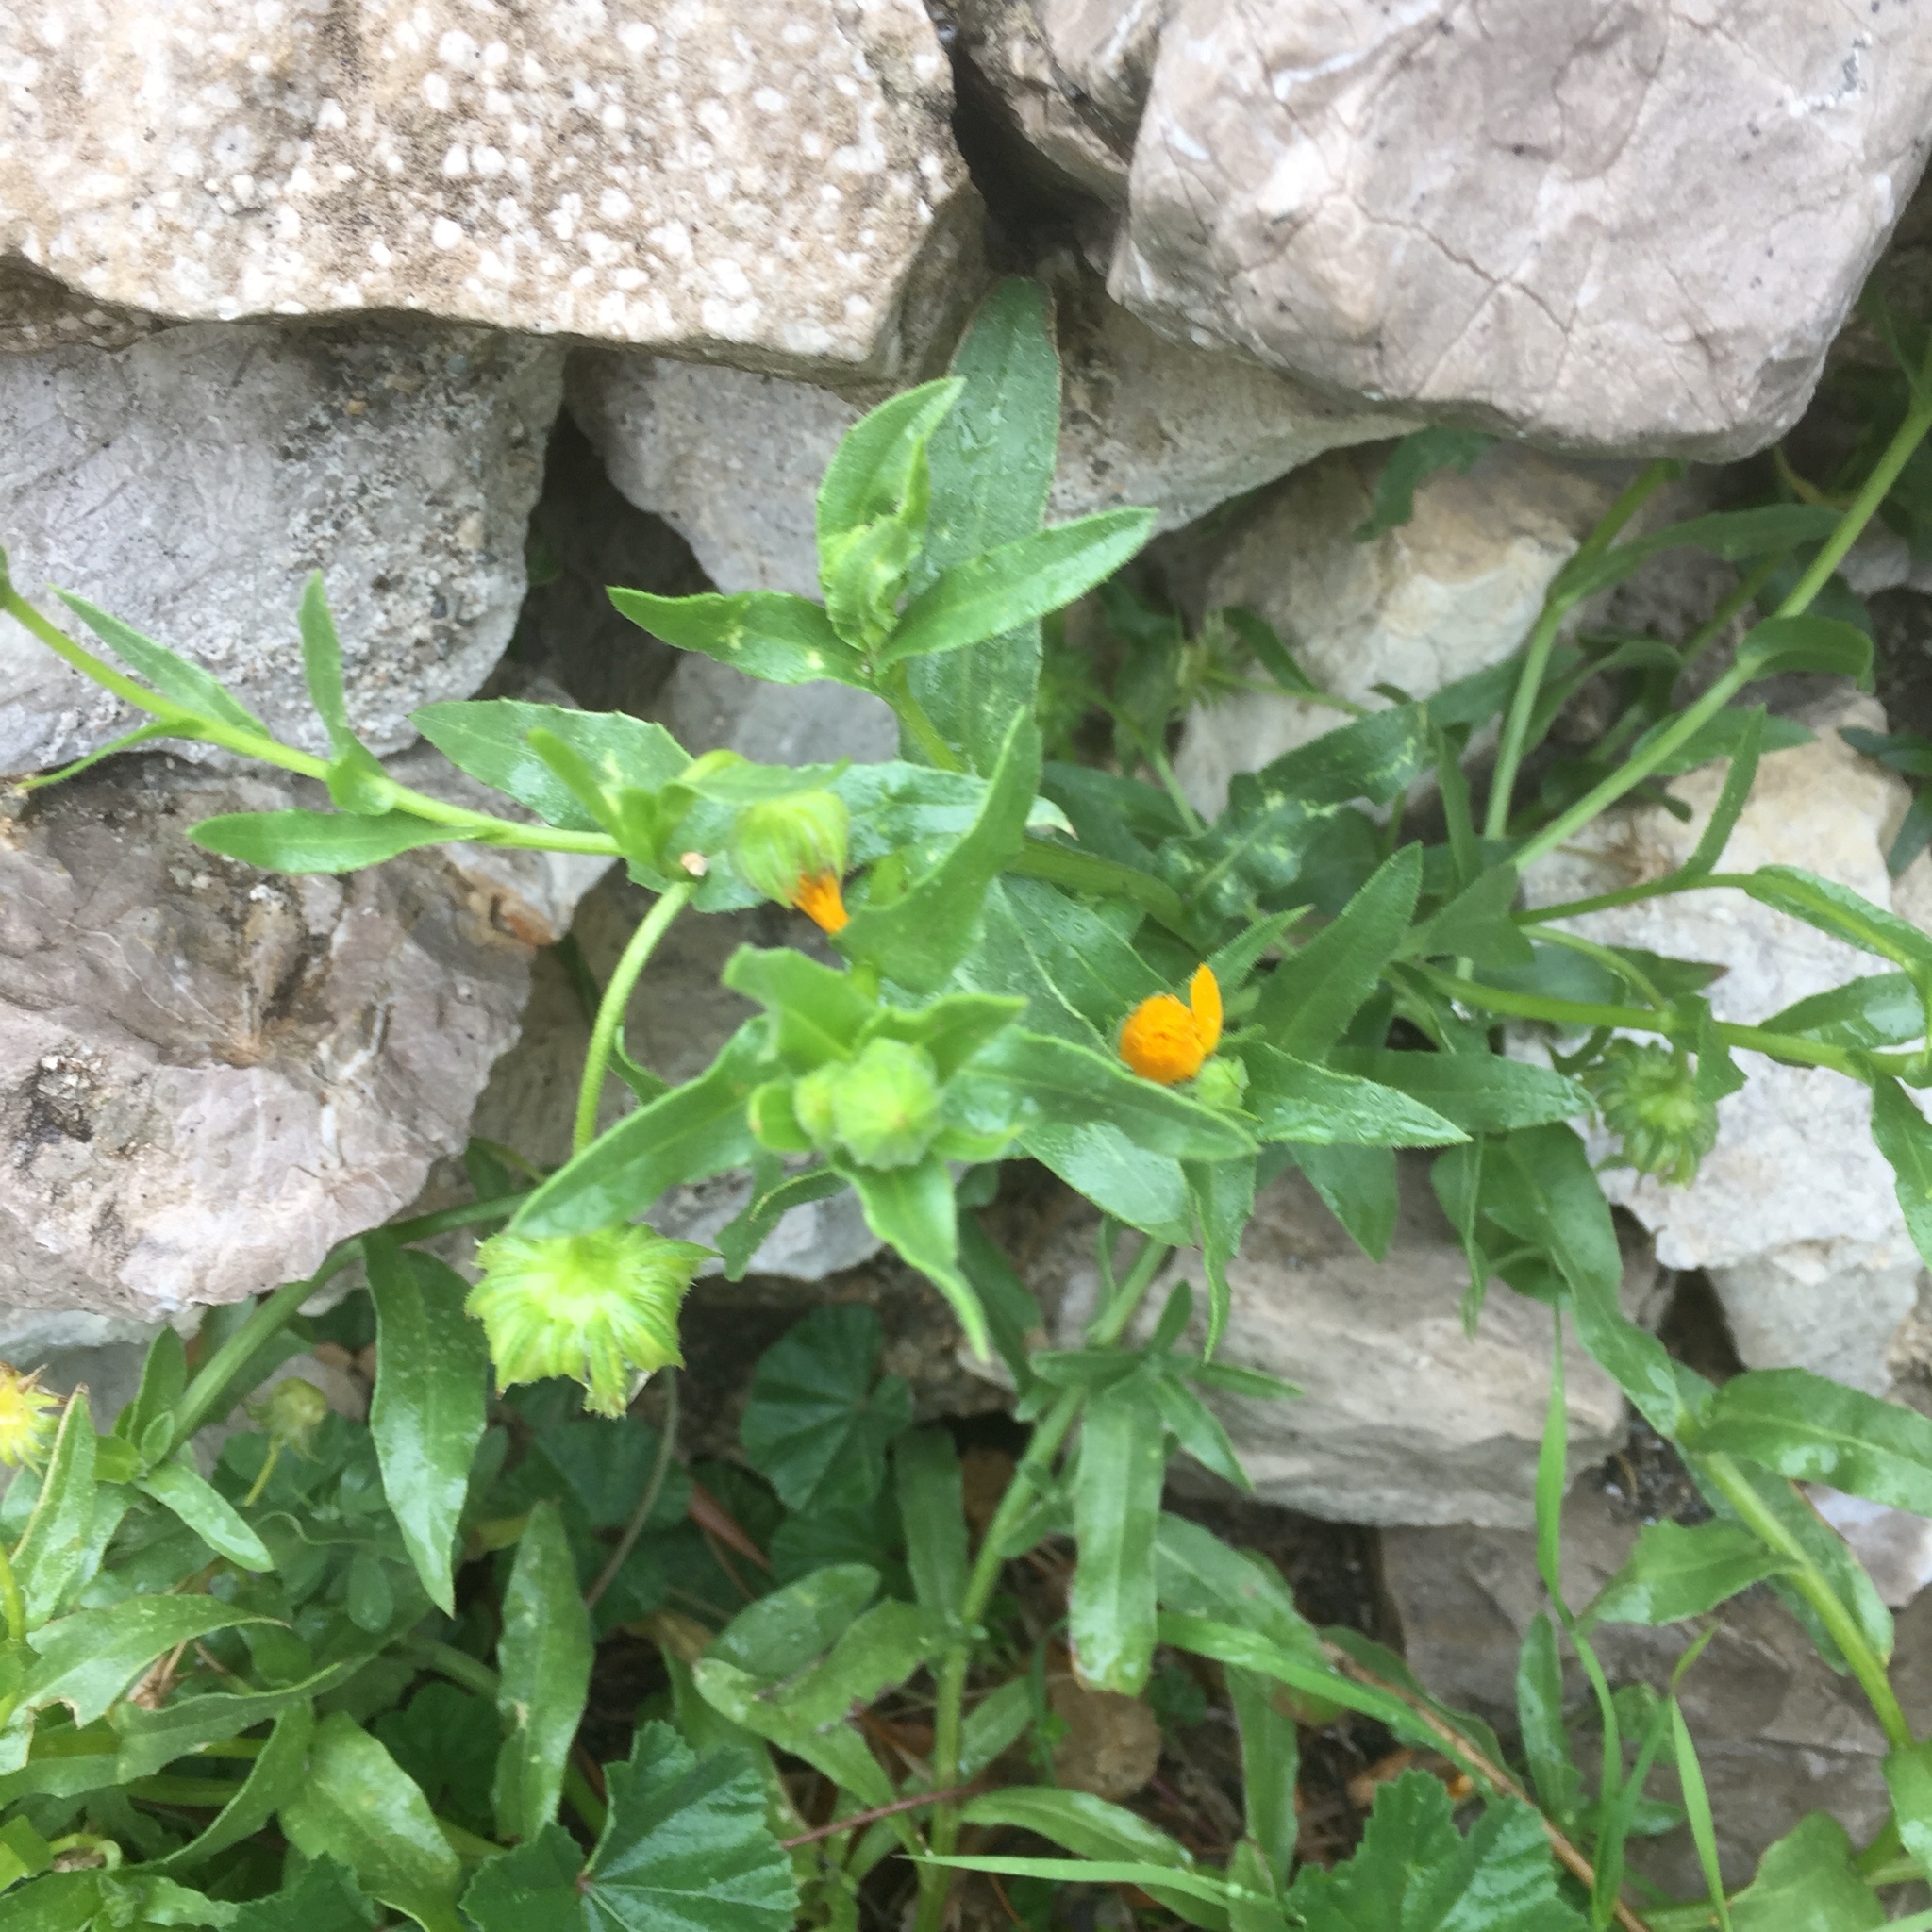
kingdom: Plantae
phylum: Tracheophyta
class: Magnoliopsida
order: Asterales
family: Asteraceae
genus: Calendula
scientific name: Calendula arvensis
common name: Field marigold
